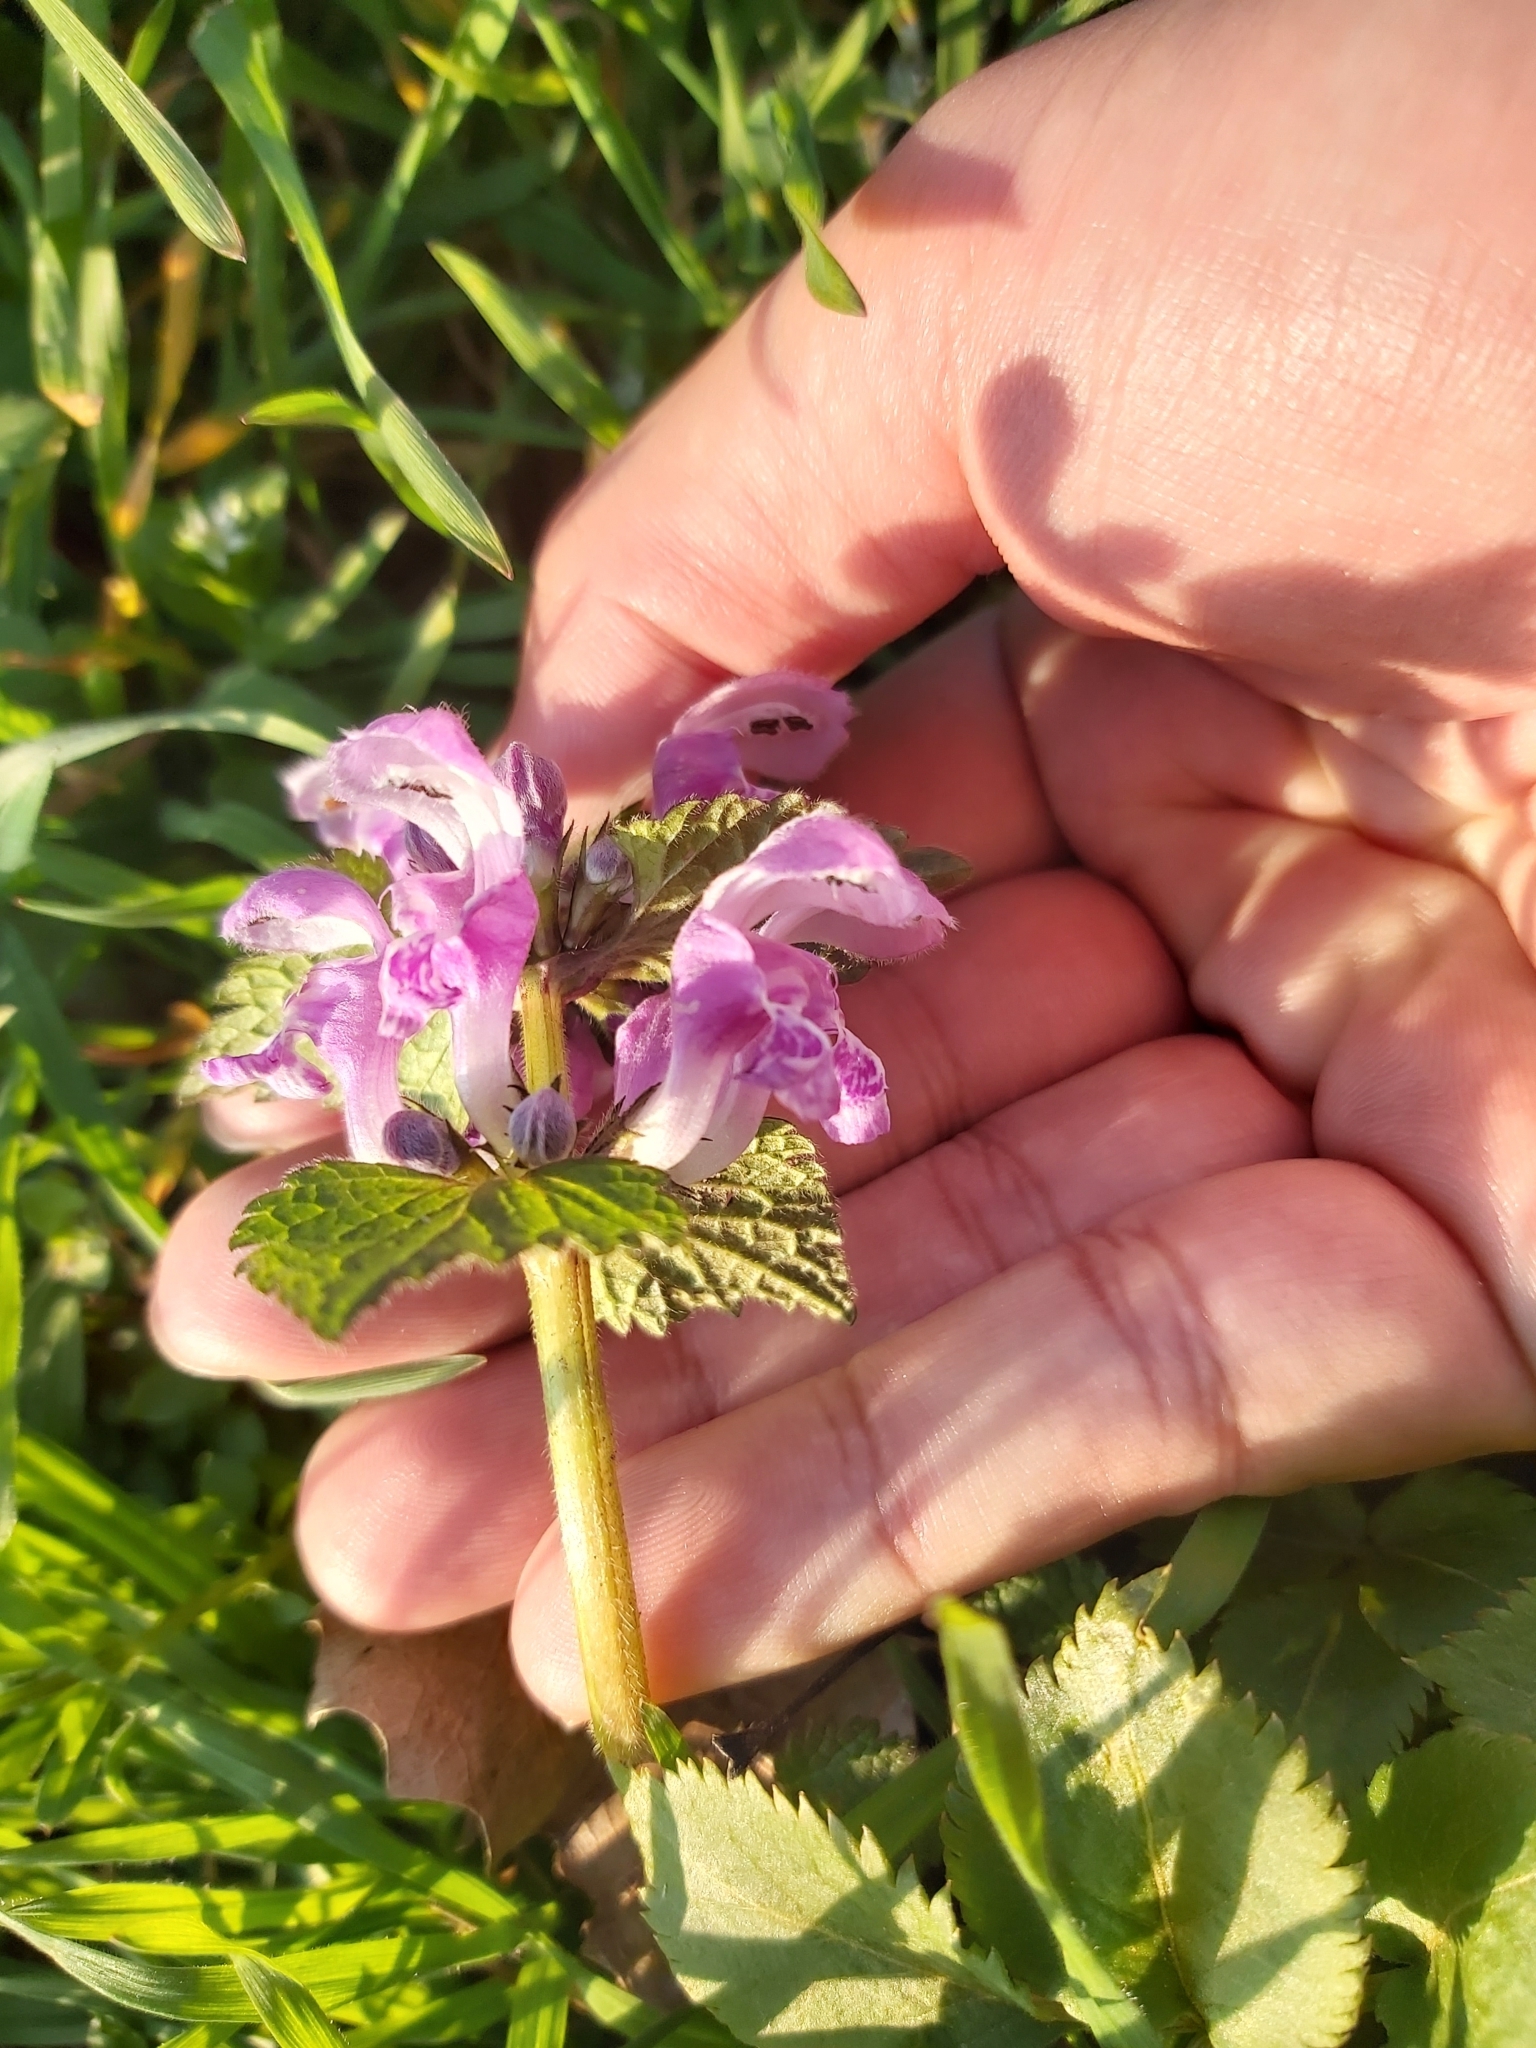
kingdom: Plantae
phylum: Tracheophyta
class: Magnoliopsida
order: Lamiales
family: Lamiaceae
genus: Lamium
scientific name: Lamium maculatum
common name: Spotted dead-nettle
